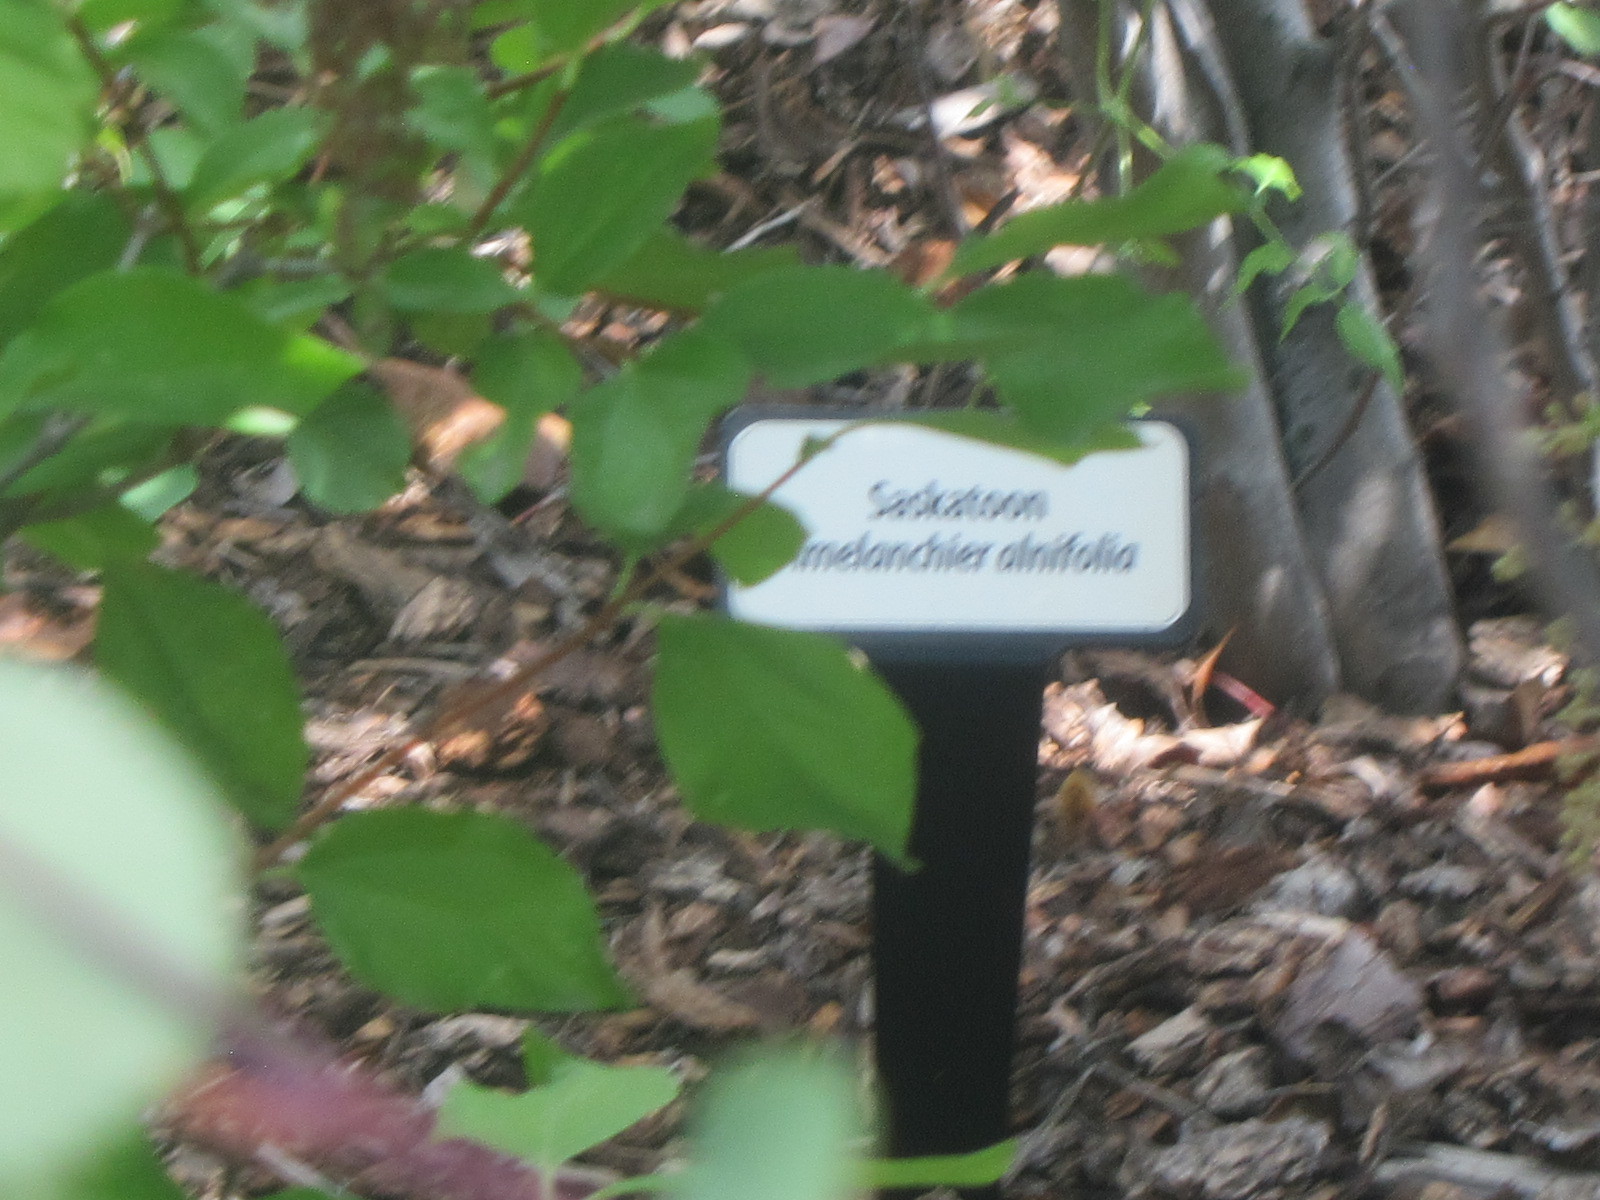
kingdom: Plantae
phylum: Tracheophyta
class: Magnoliopsida
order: Rosales
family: Rosaceae
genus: Amelanchier
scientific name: Amelanchier alnifolia
